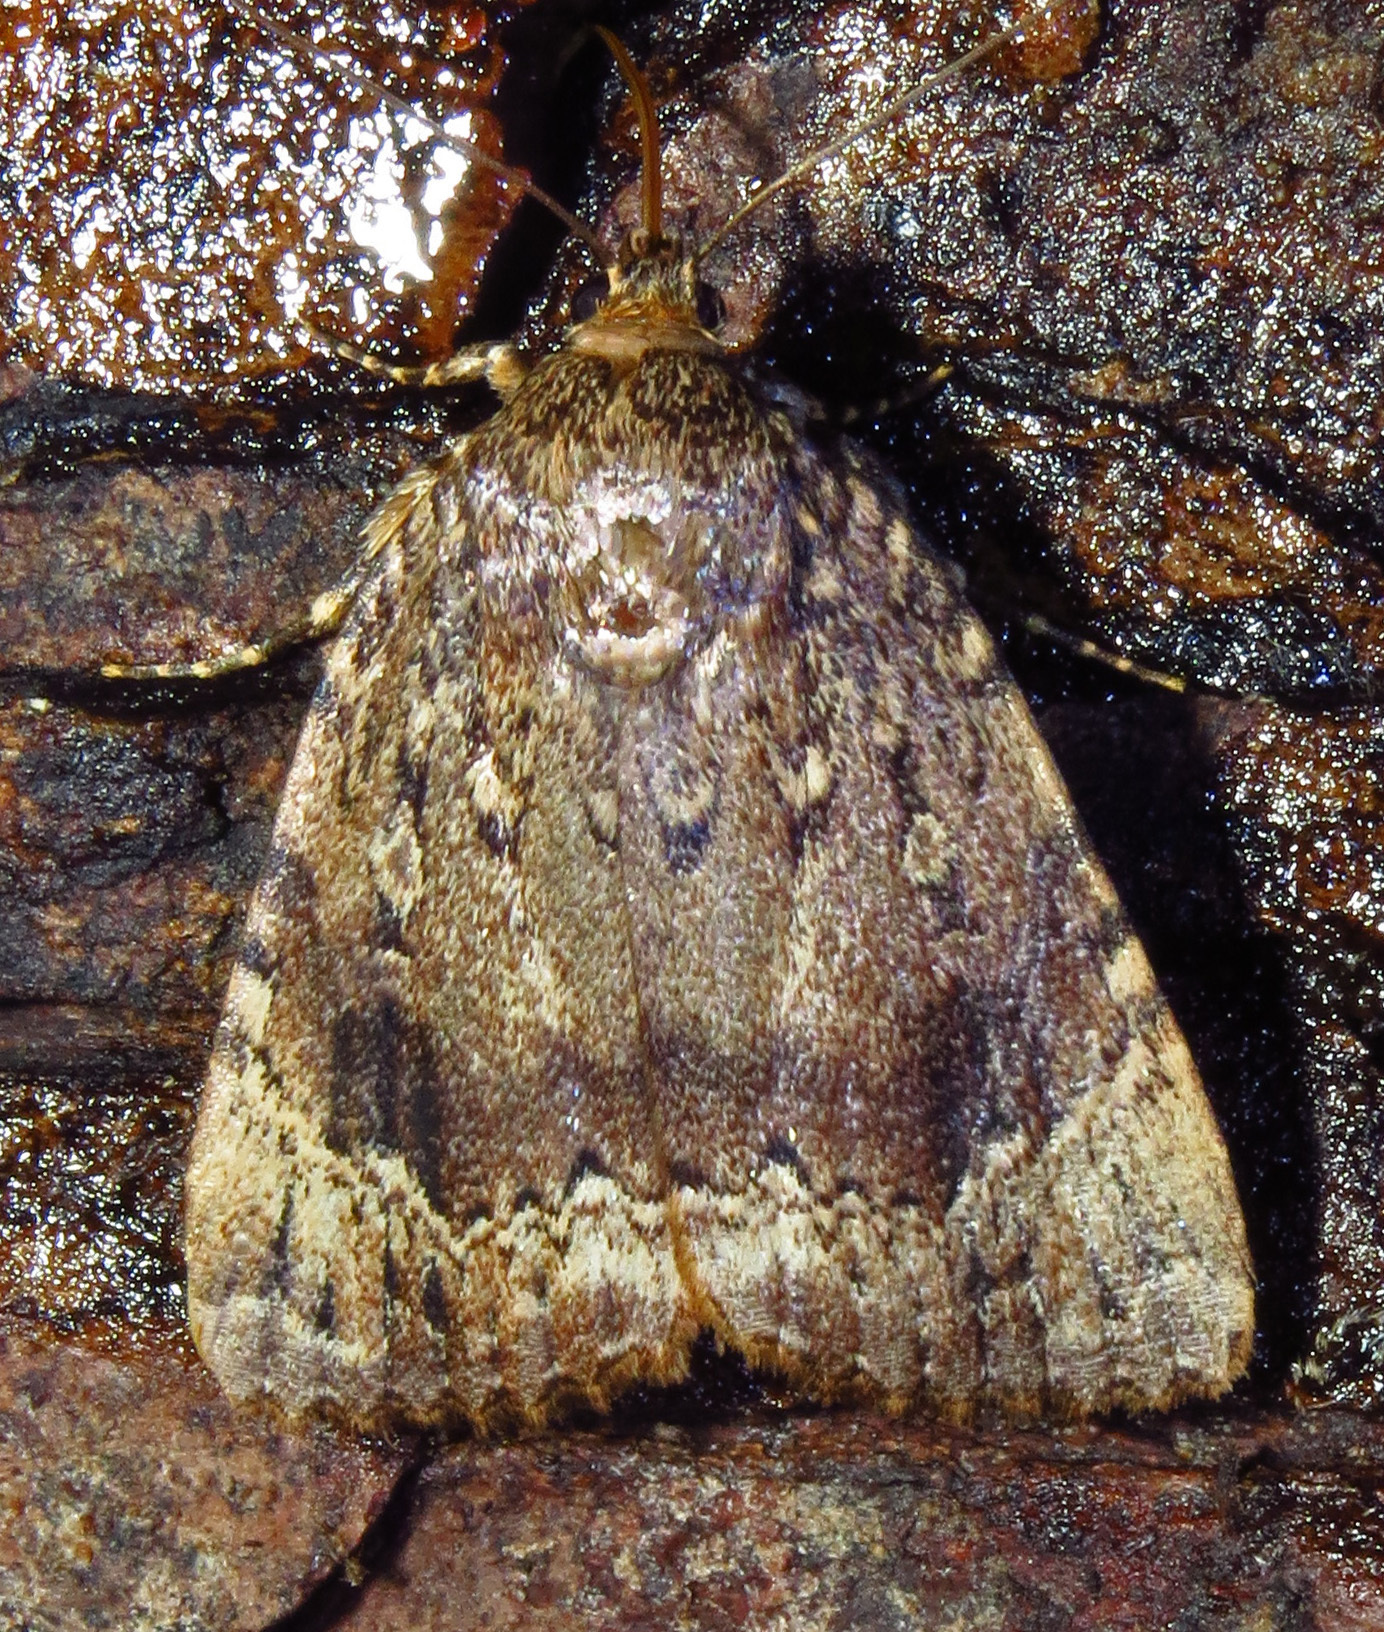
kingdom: Animalia
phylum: Arthropoda
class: Insecta
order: Lepidoptera
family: Noctuidae
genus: Amphipyra
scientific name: Amphipyra pyramidoides
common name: American copper underwing
